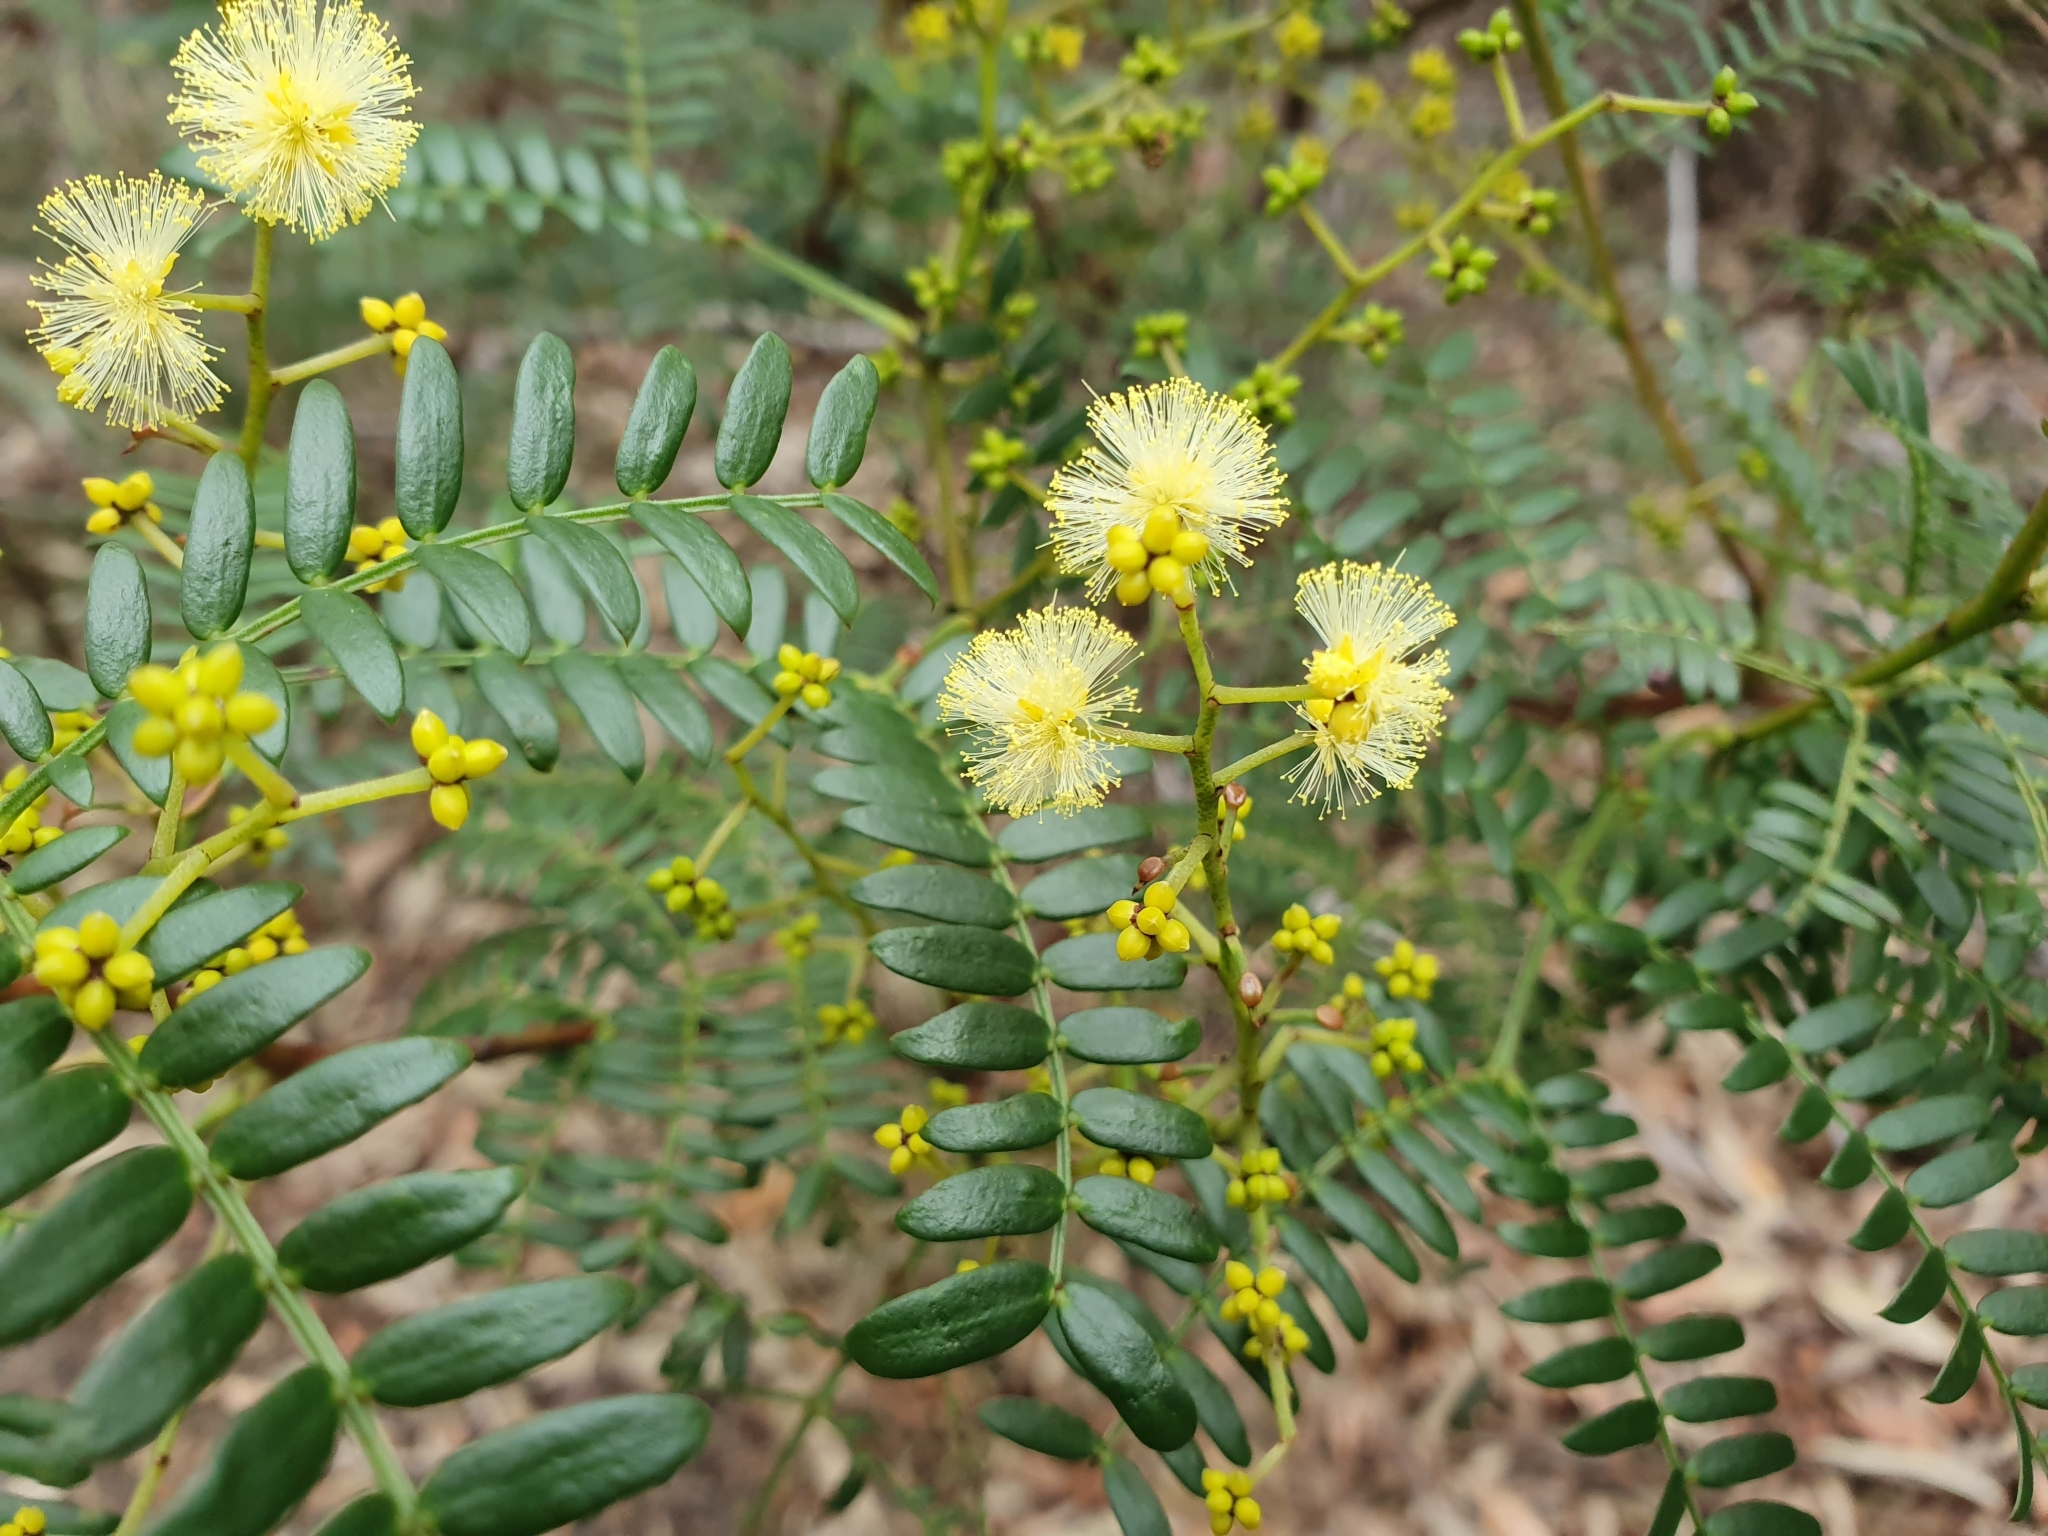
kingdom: Plantae
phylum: Tracheophyta
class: Magnoliopsida
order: Fabales
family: Fabaceae
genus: Acacia
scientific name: Acacia terminalis
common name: Cedar wattle
